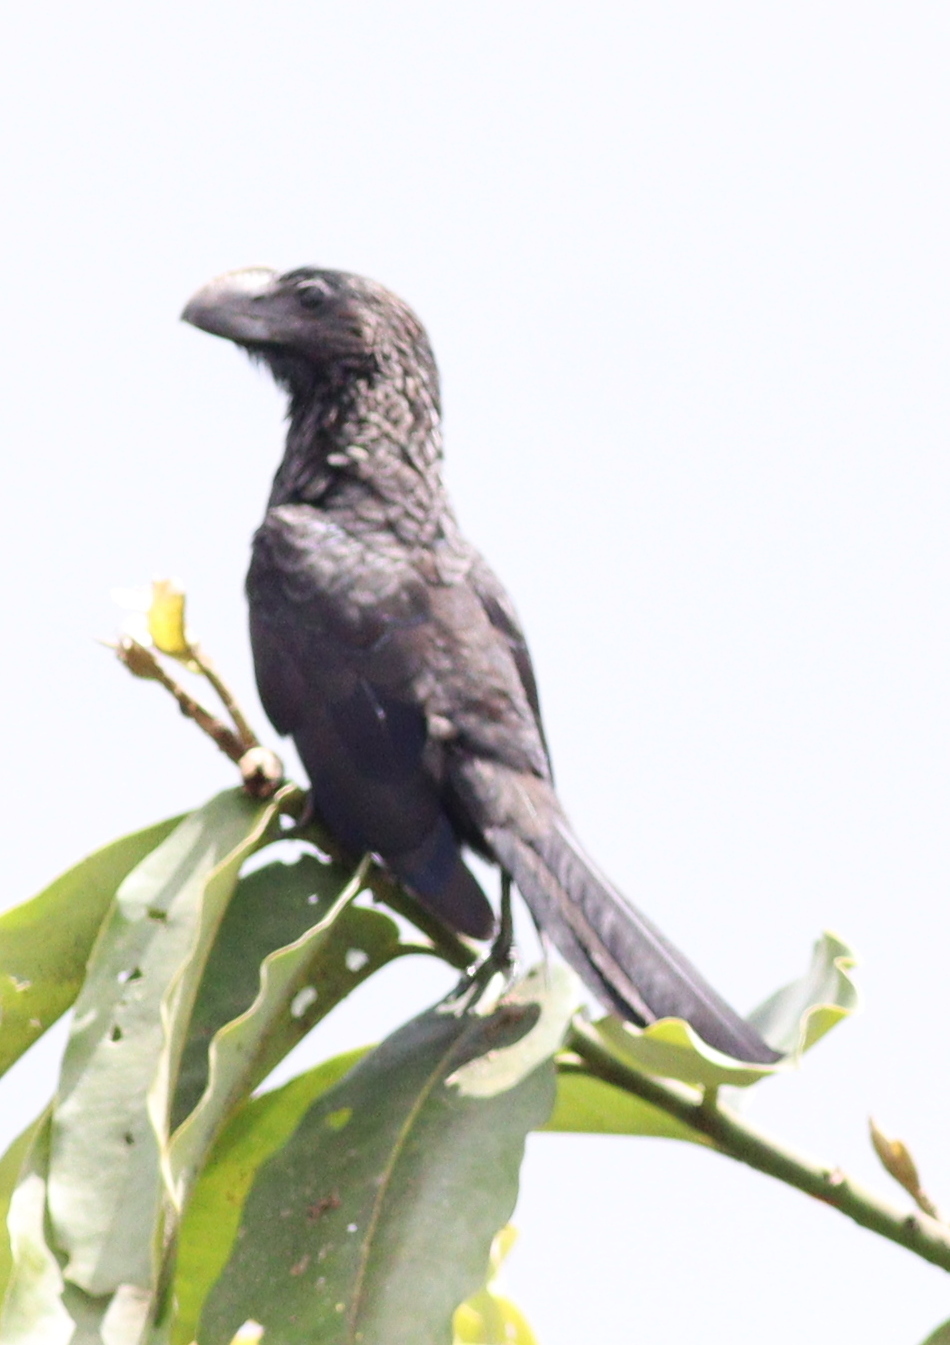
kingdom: Animalia
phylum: Chordata
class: Aves
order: Cuculiformes
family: Cuculidae
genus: Crotophaga
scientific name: Crotophaga ani
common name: Smooth-billed ani
